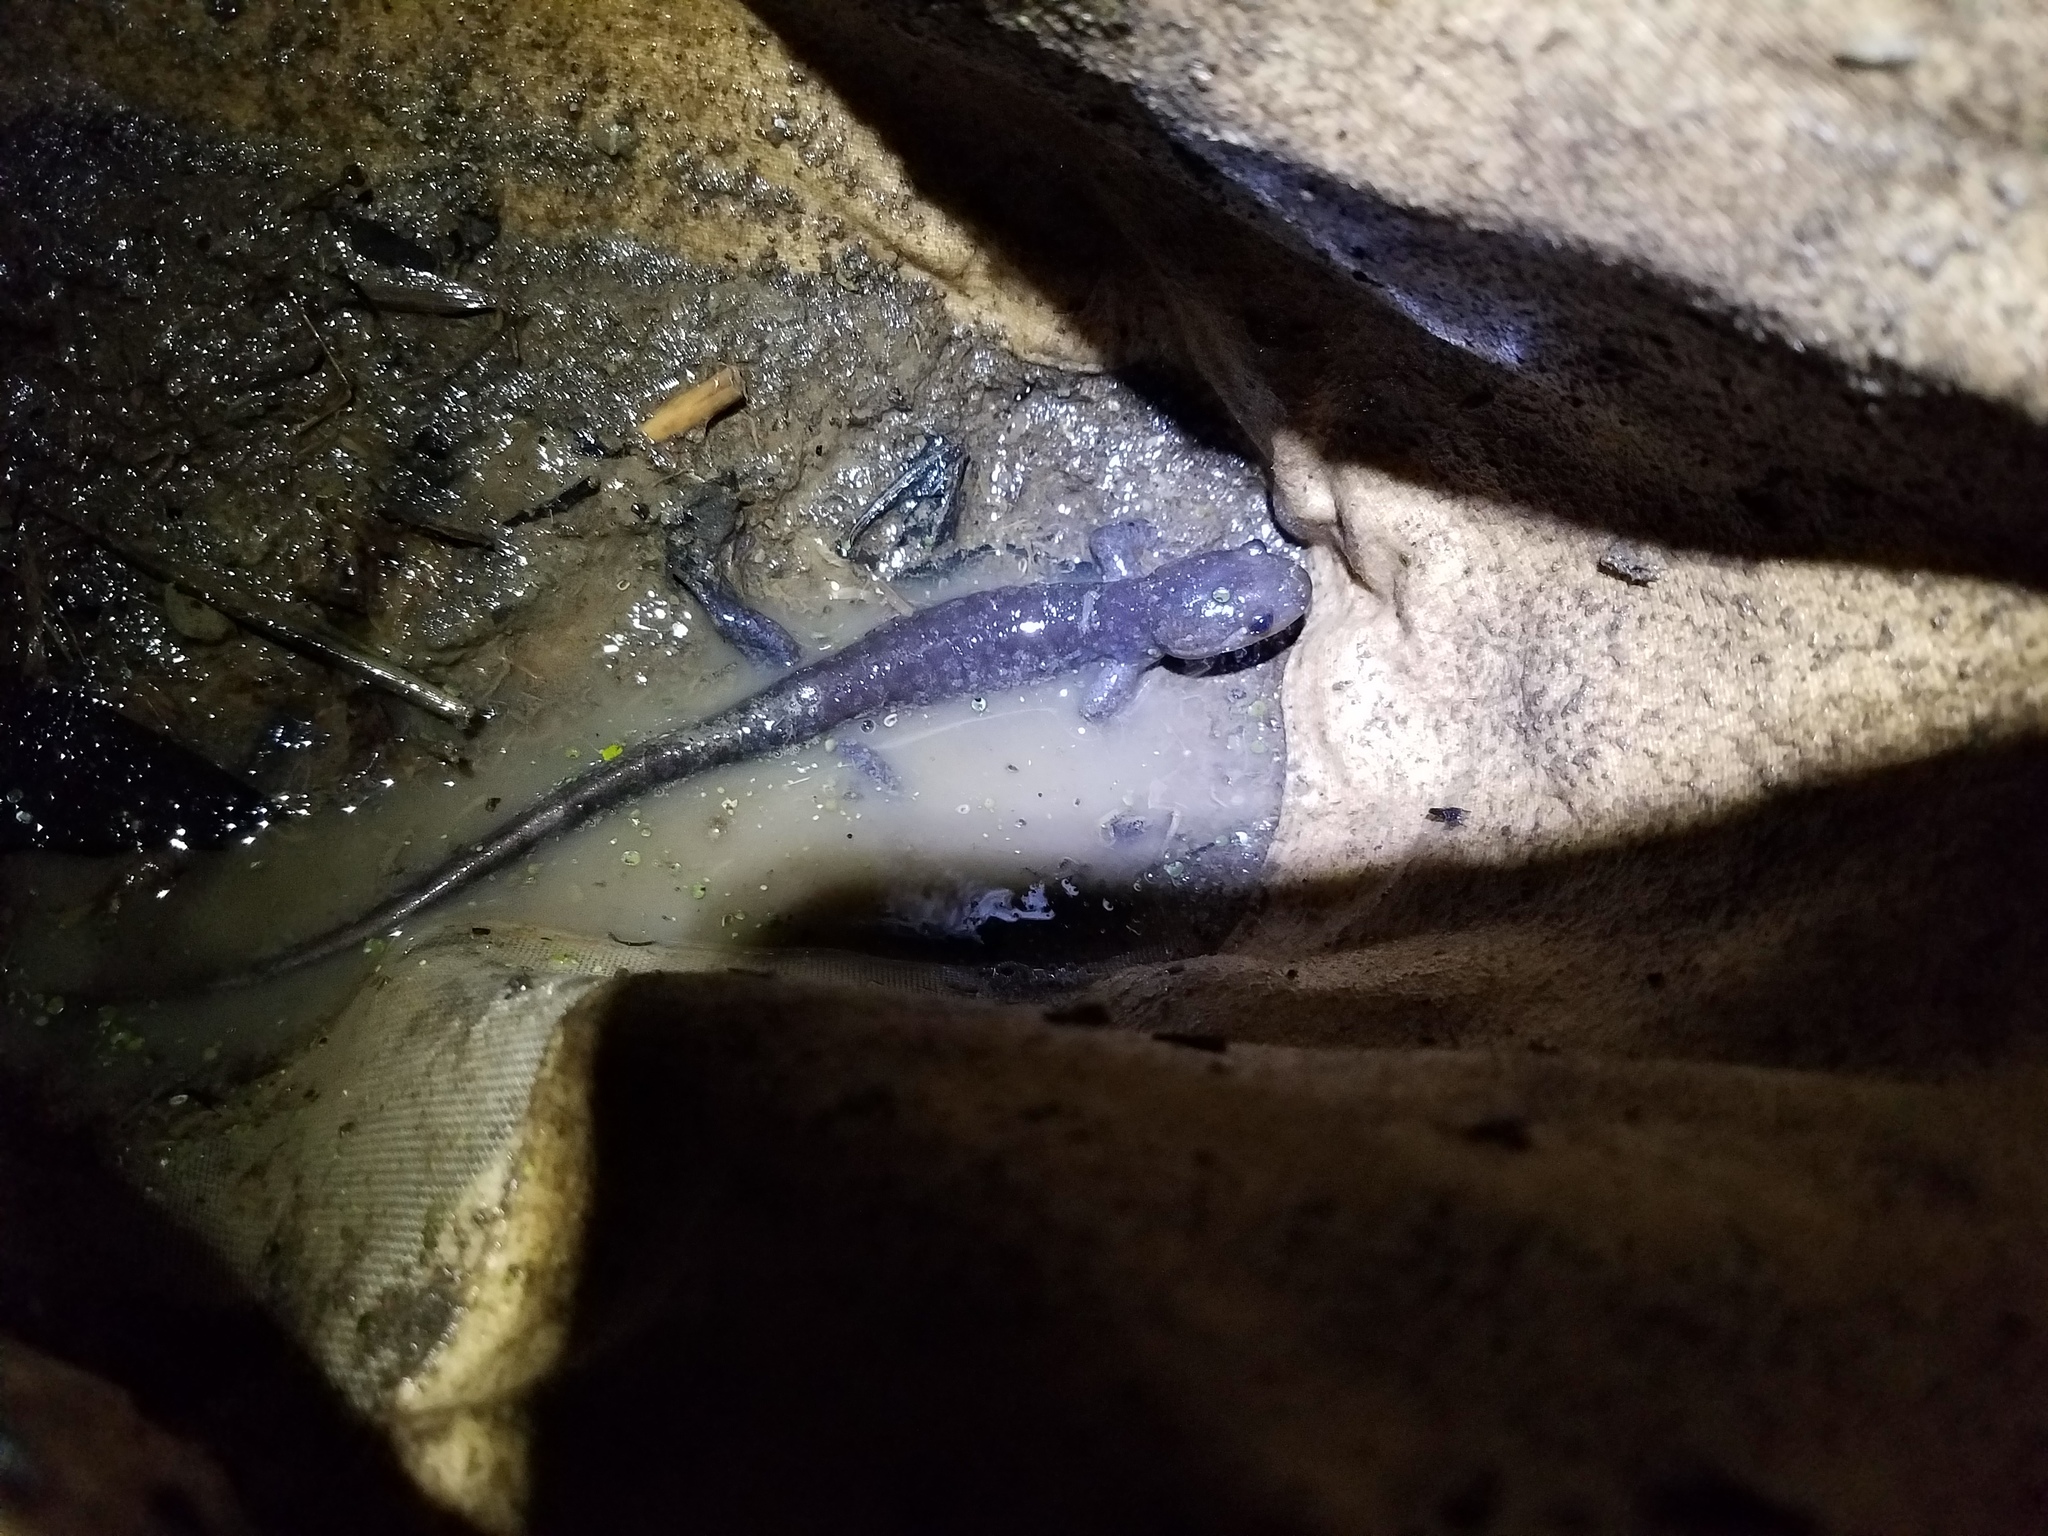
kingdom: Animalia
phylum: Chordata
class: Amphibia
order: Caudata
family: Ambystomatidae
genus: Ambystoma
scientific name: Ambystoma jeffersonianum
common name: Jefferson salamander
